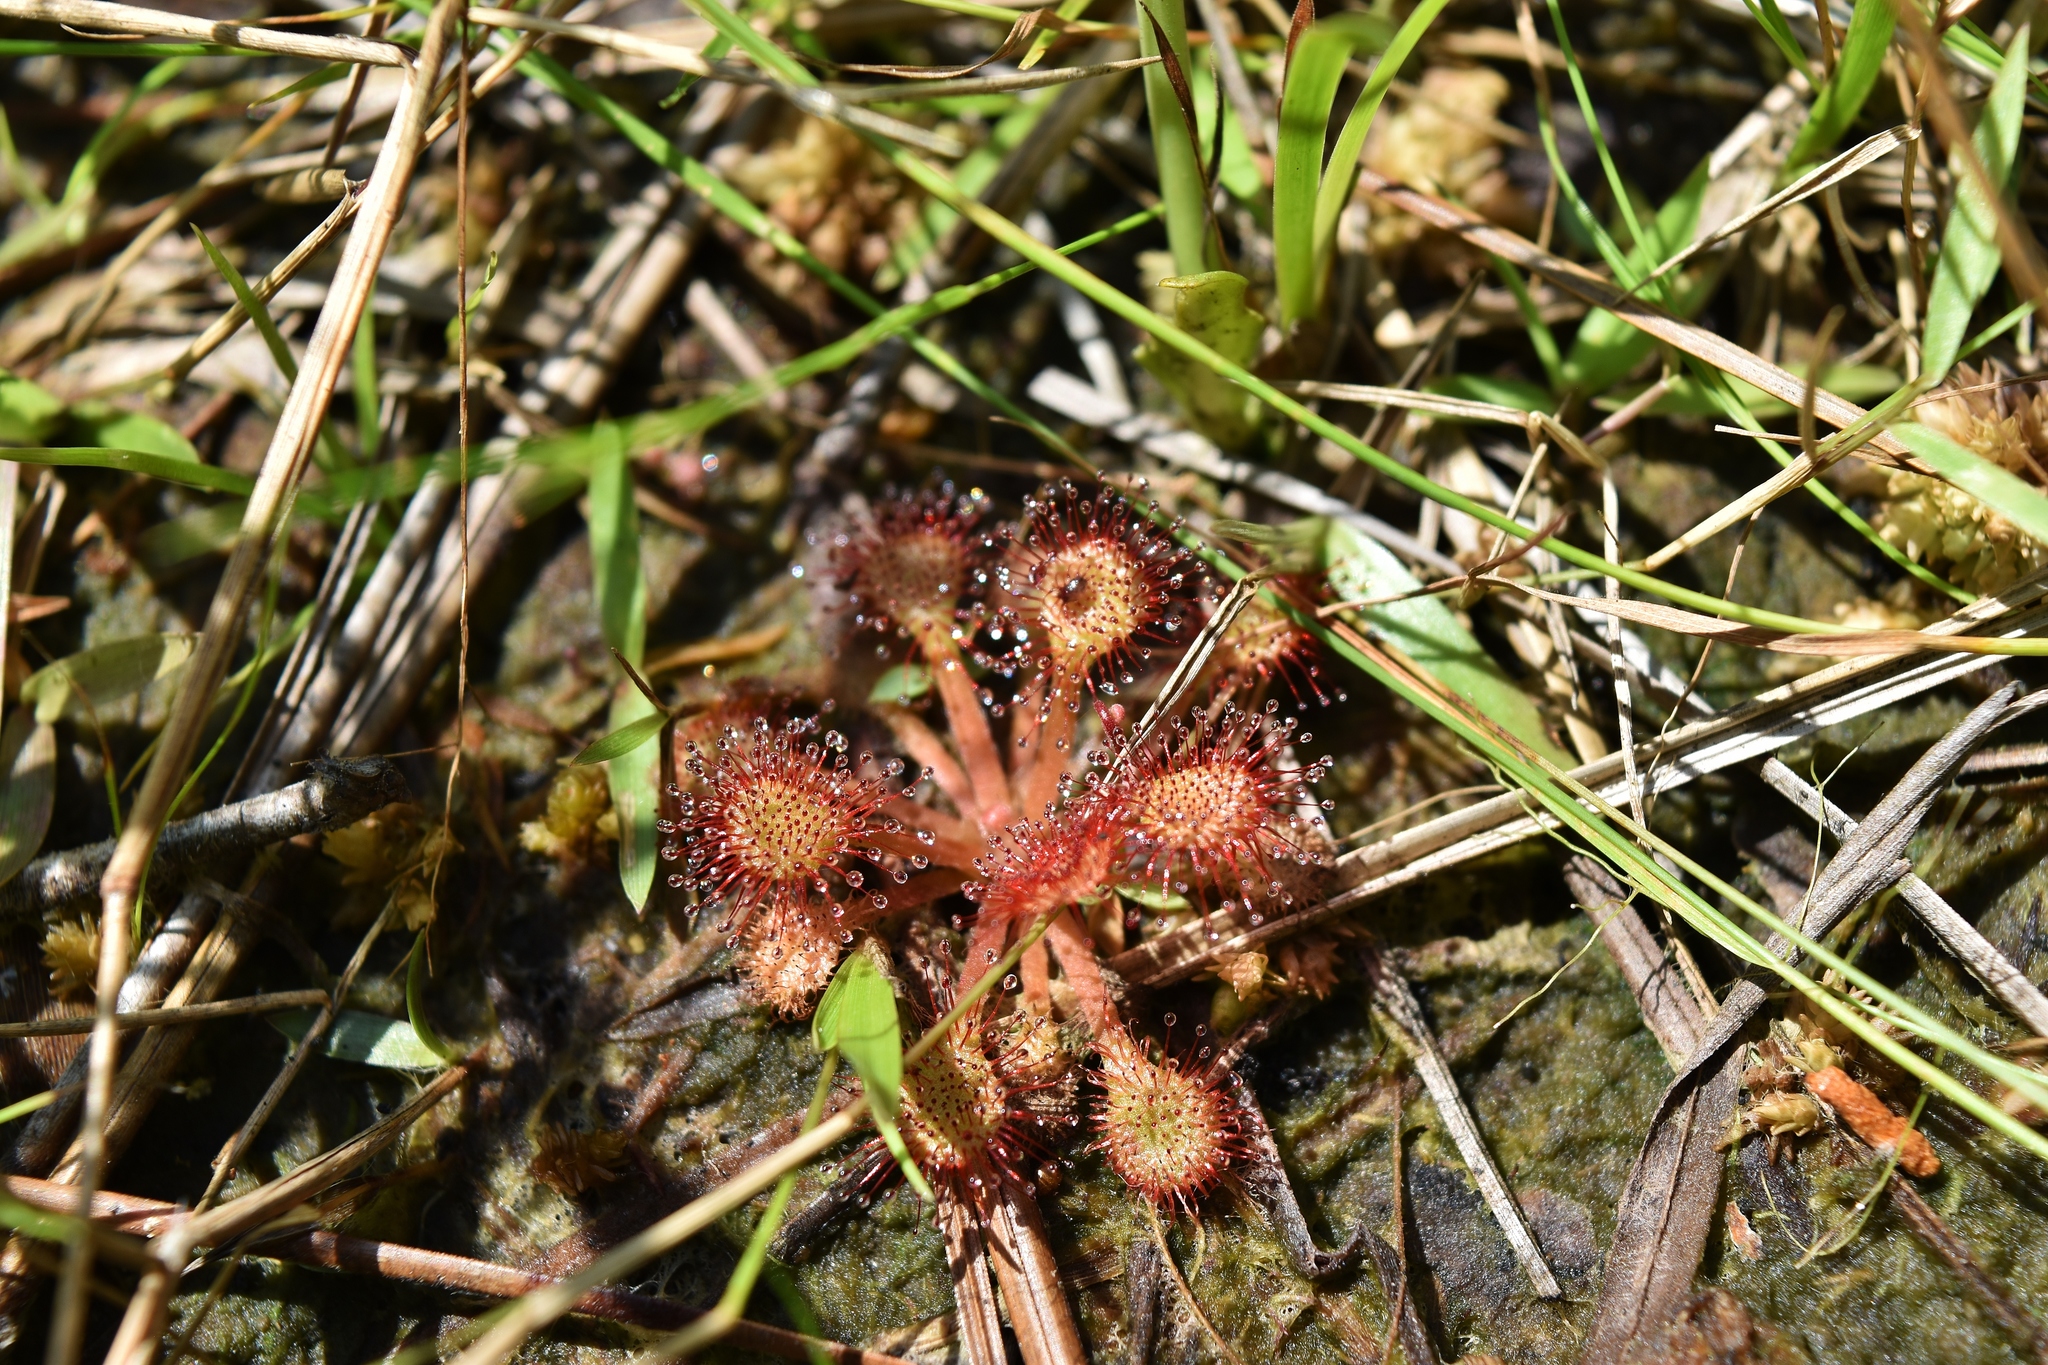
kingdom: Plantae
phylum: Tracheophyta
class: Magnoliopsida
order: Caryophyllales
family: Droseraceae
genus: Drosera
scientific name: Drosera capillaris
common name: Pink sundew
